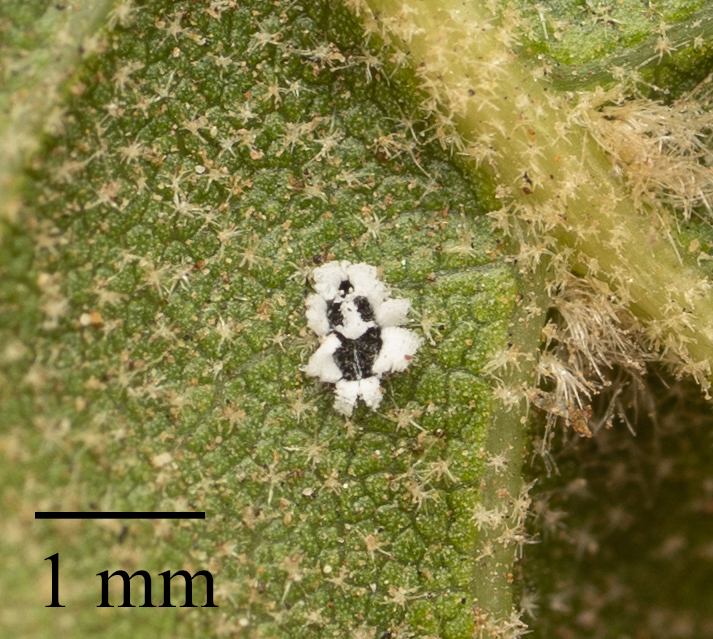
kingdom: Animalia
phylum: Arthropoda
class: Insecta
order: Hemiptera
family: Aleyrodidae
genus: Aleuroplatus
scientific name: Aleuroplatus coronata
